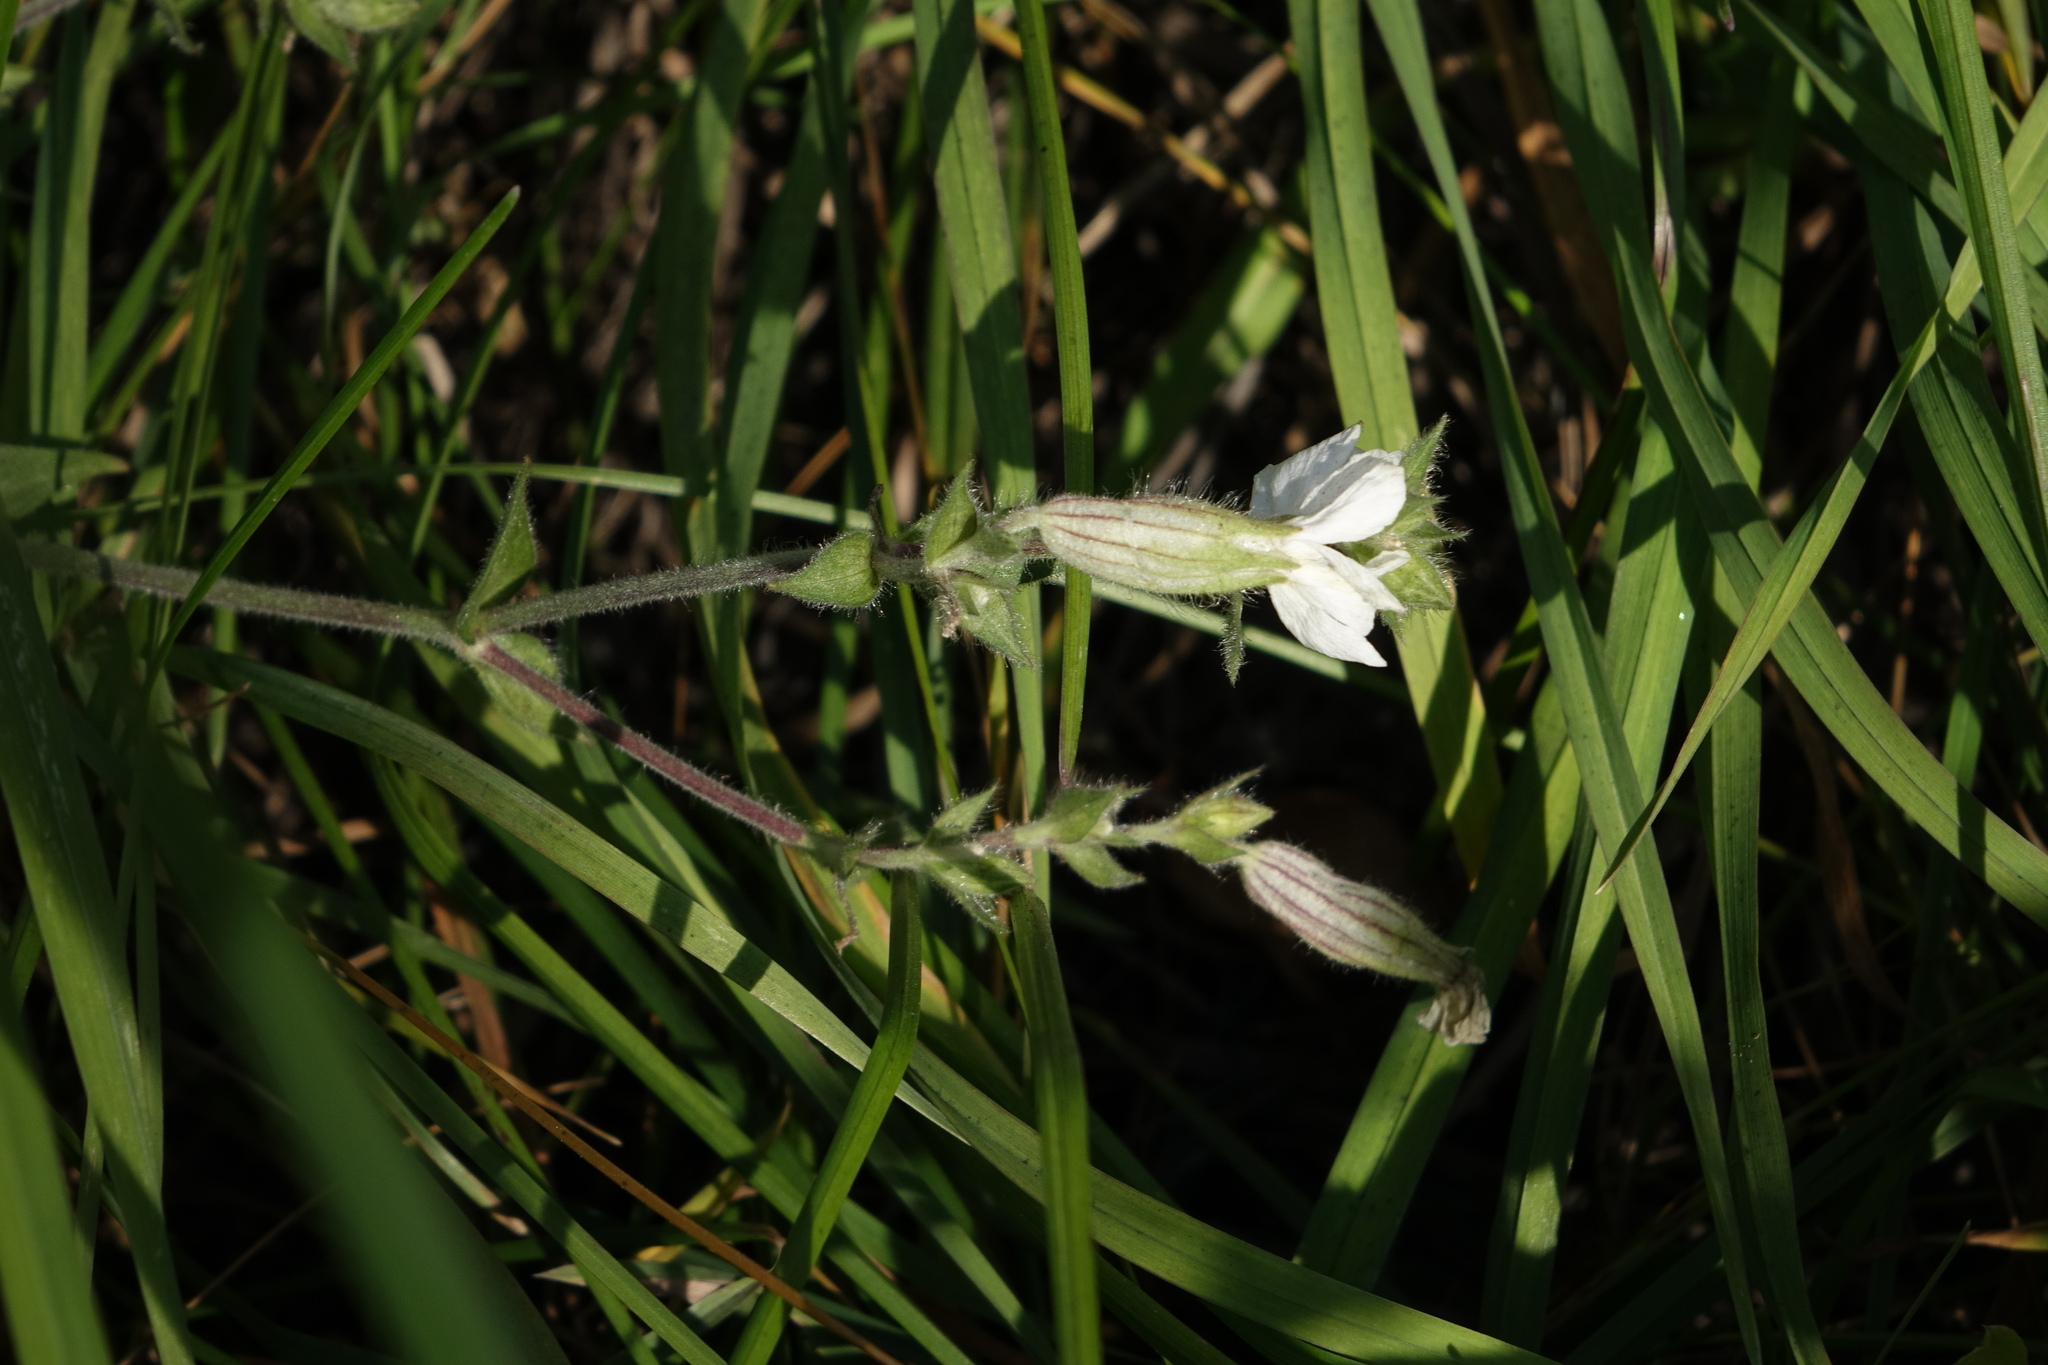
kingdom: Plantae
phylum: Tracheophyta
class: Magnoliopsida
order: Caryophyllales
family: Caryophyllaceae
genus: Silene
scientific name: Silene latifolia
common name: White campion
